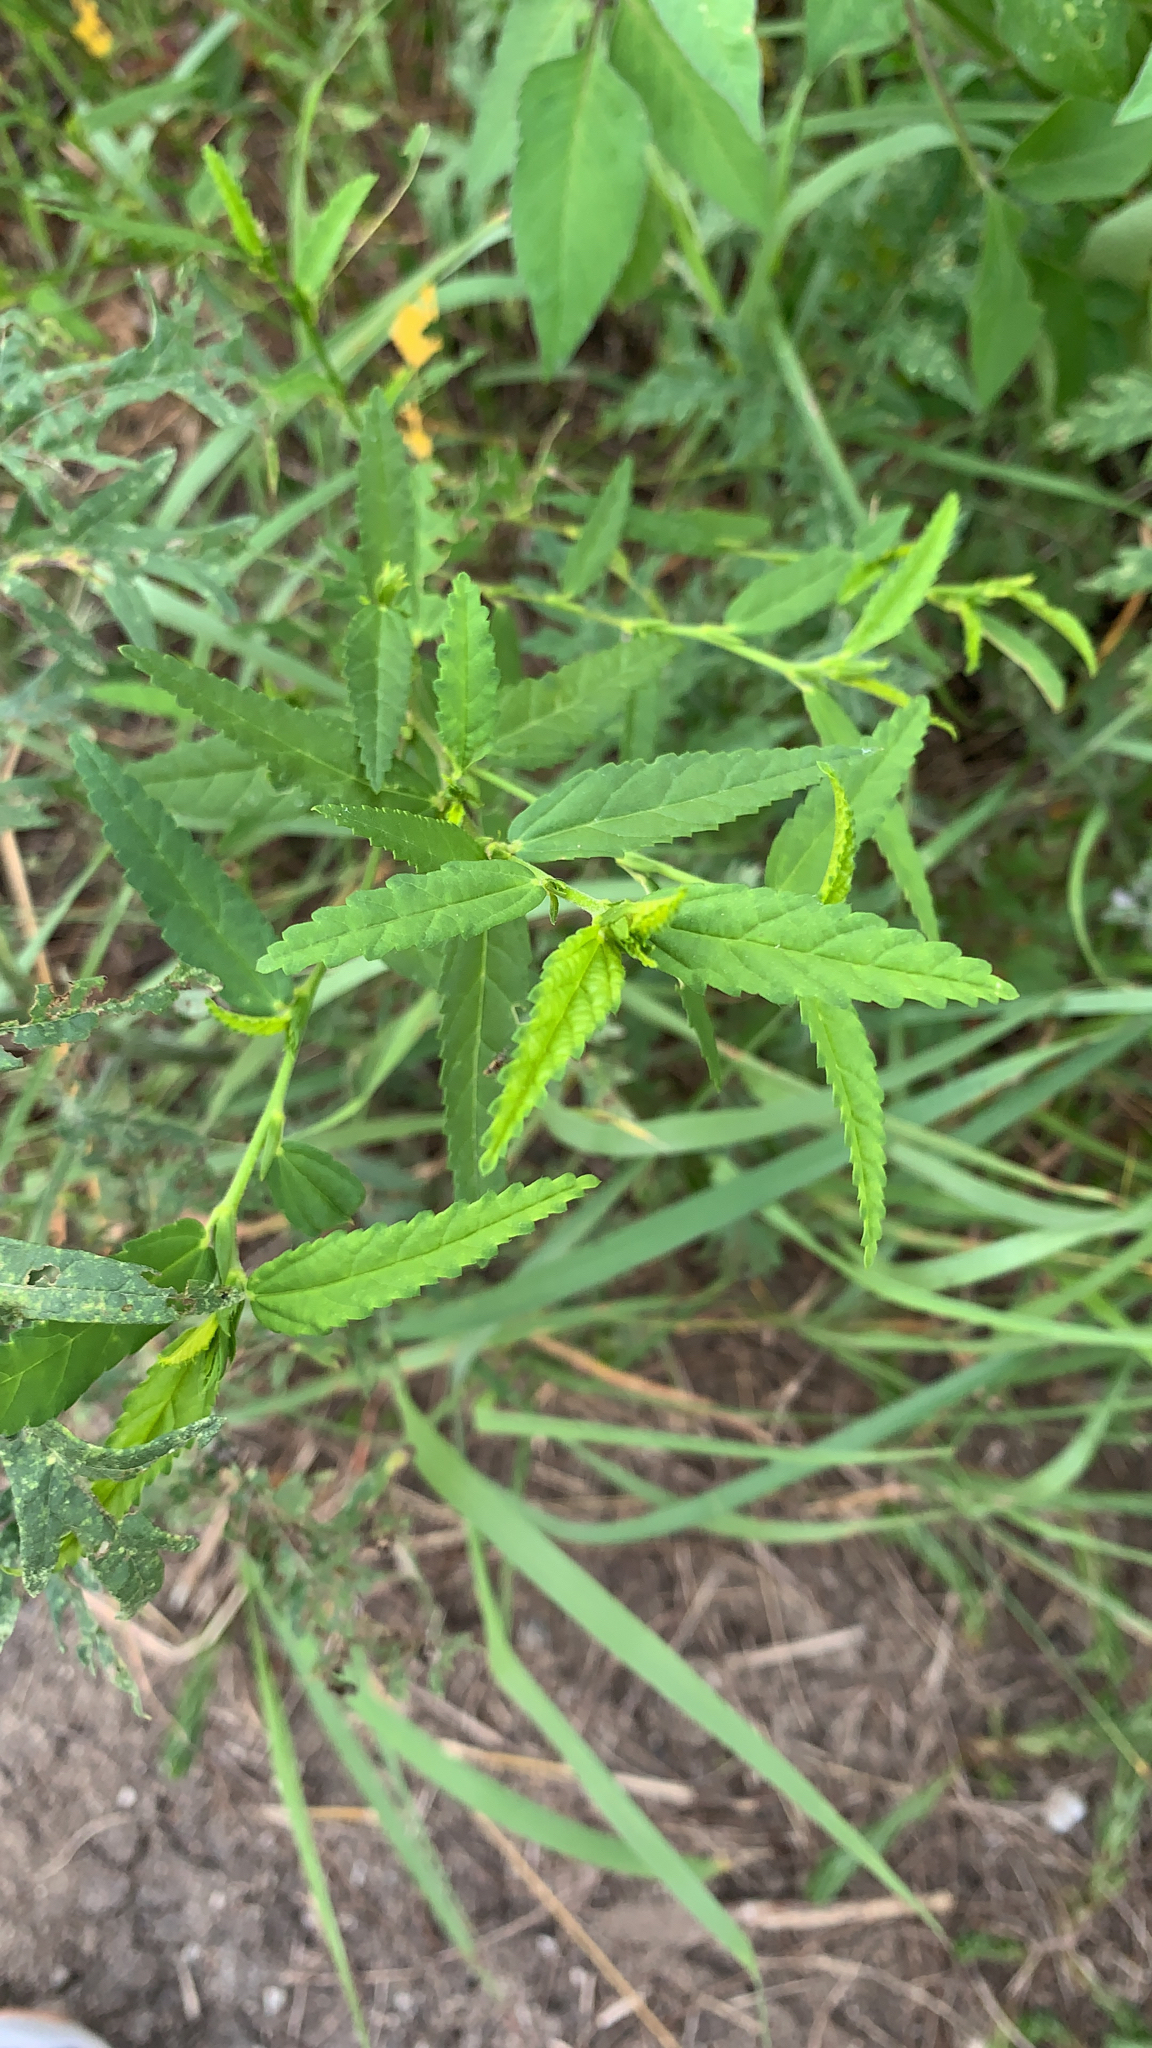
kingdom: Plantae
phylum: Tracheophyta
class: Magnoliopsida
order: Malvales
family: Malvaceae
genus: Sida
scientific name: Sida acuta
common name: Common wireweed
